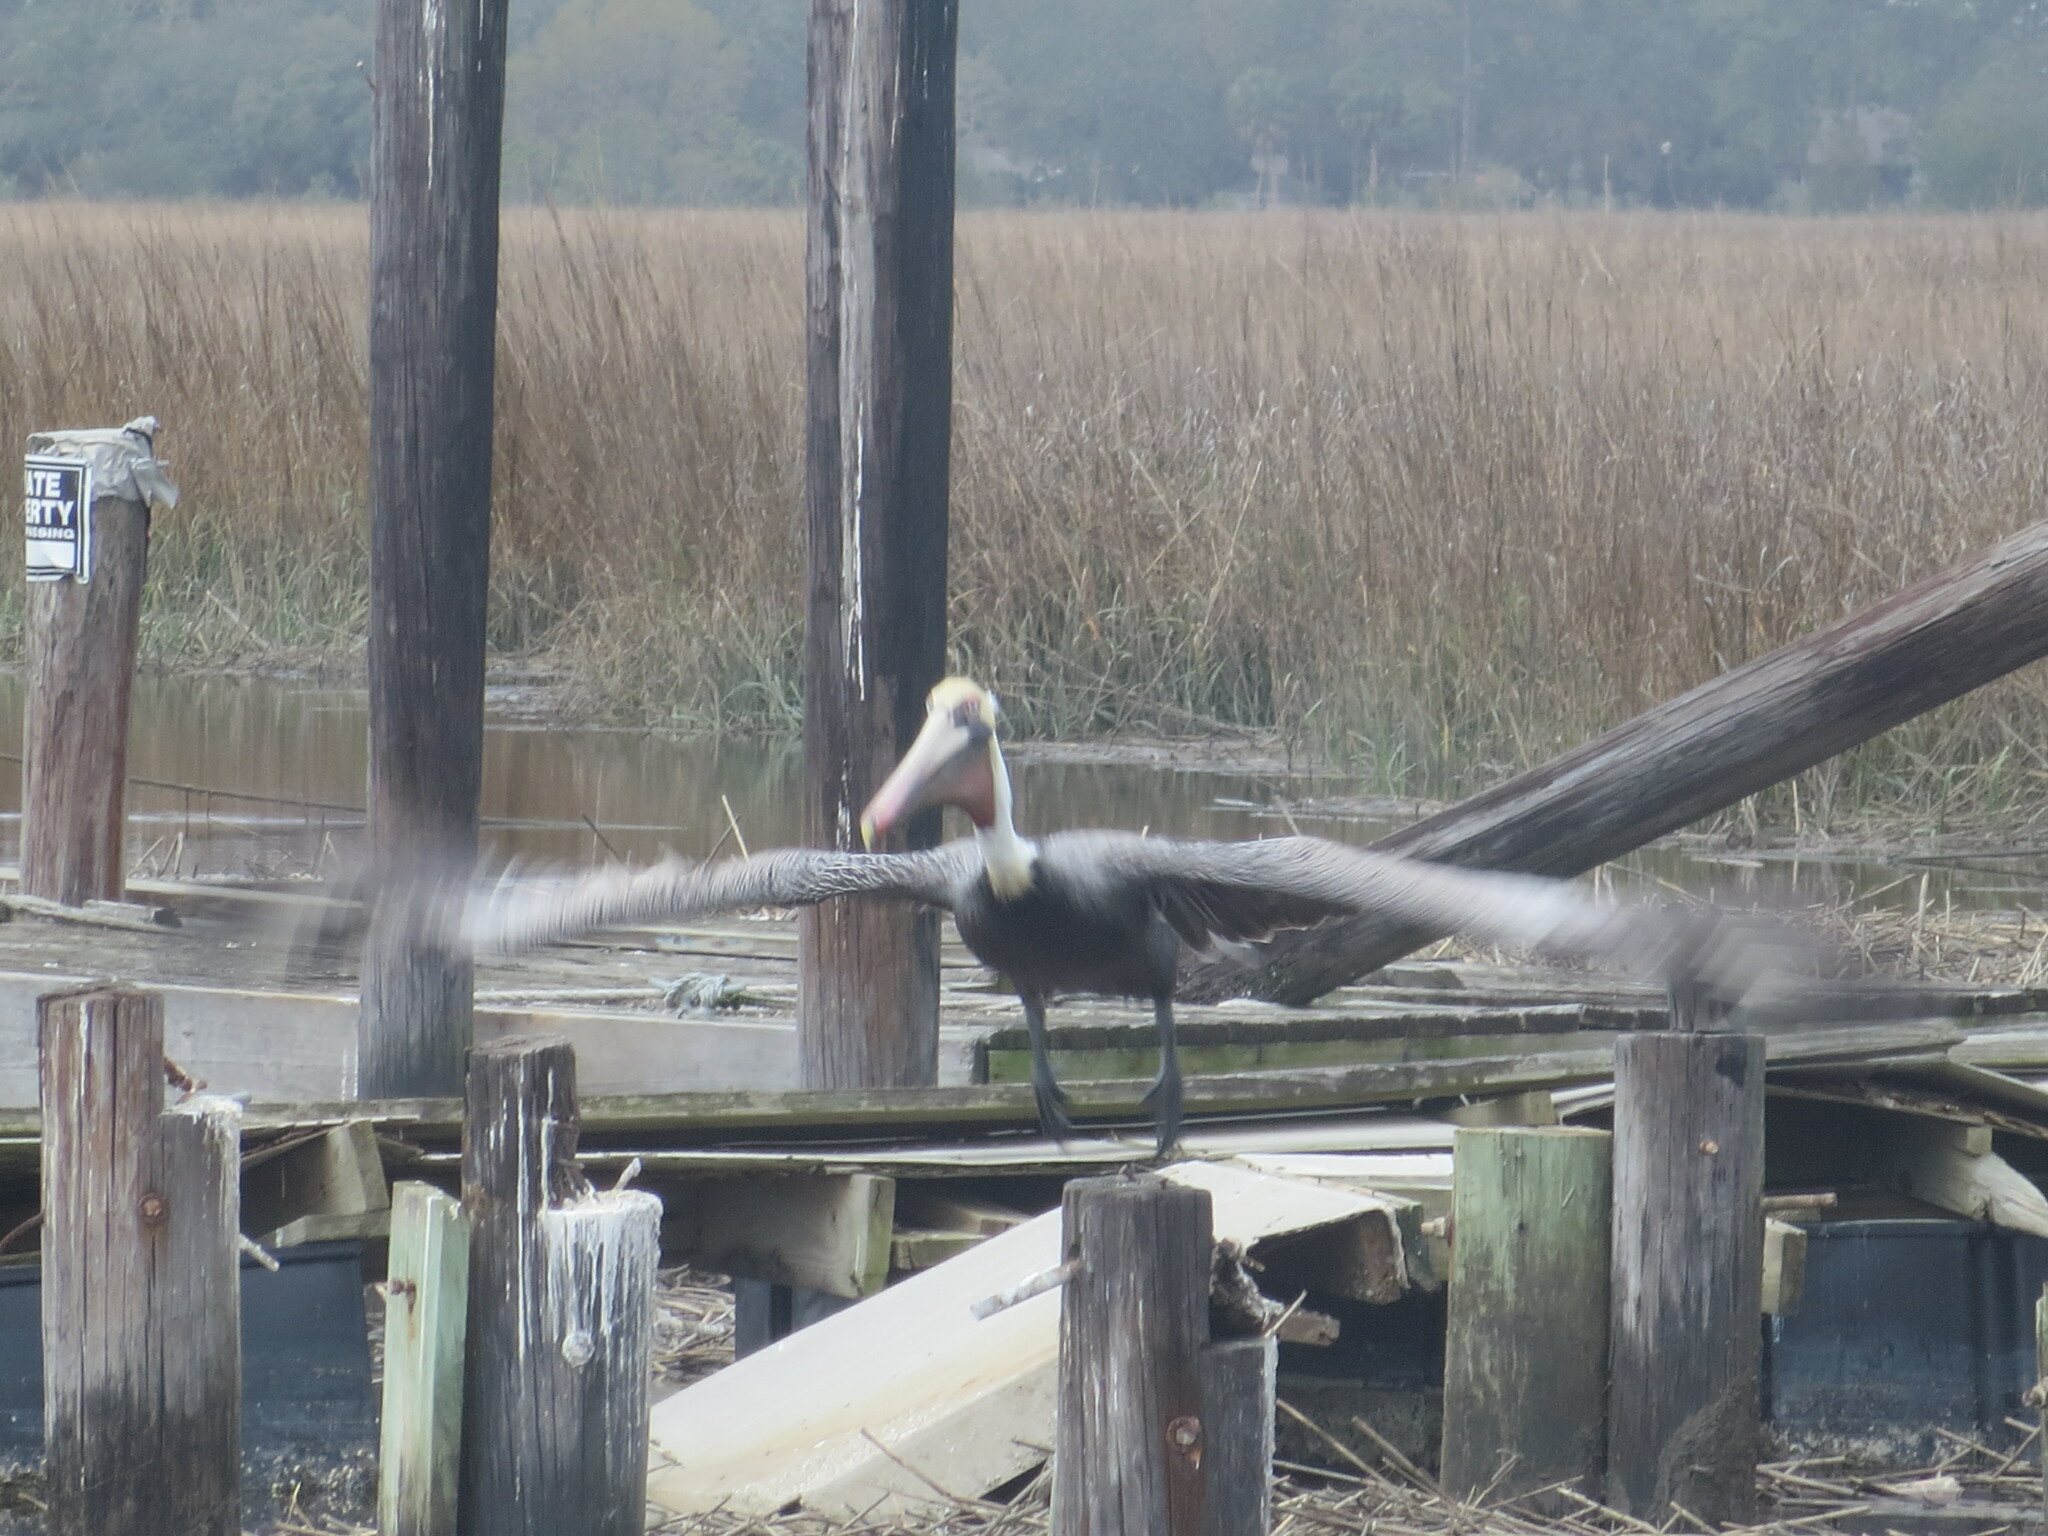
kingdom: Animalia
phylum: Chordata
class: Aves
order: Pelecaniformes
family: Pelecanidae
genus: Pelecanus
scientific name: Pelecanus occidentalis
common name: Brown pelican
